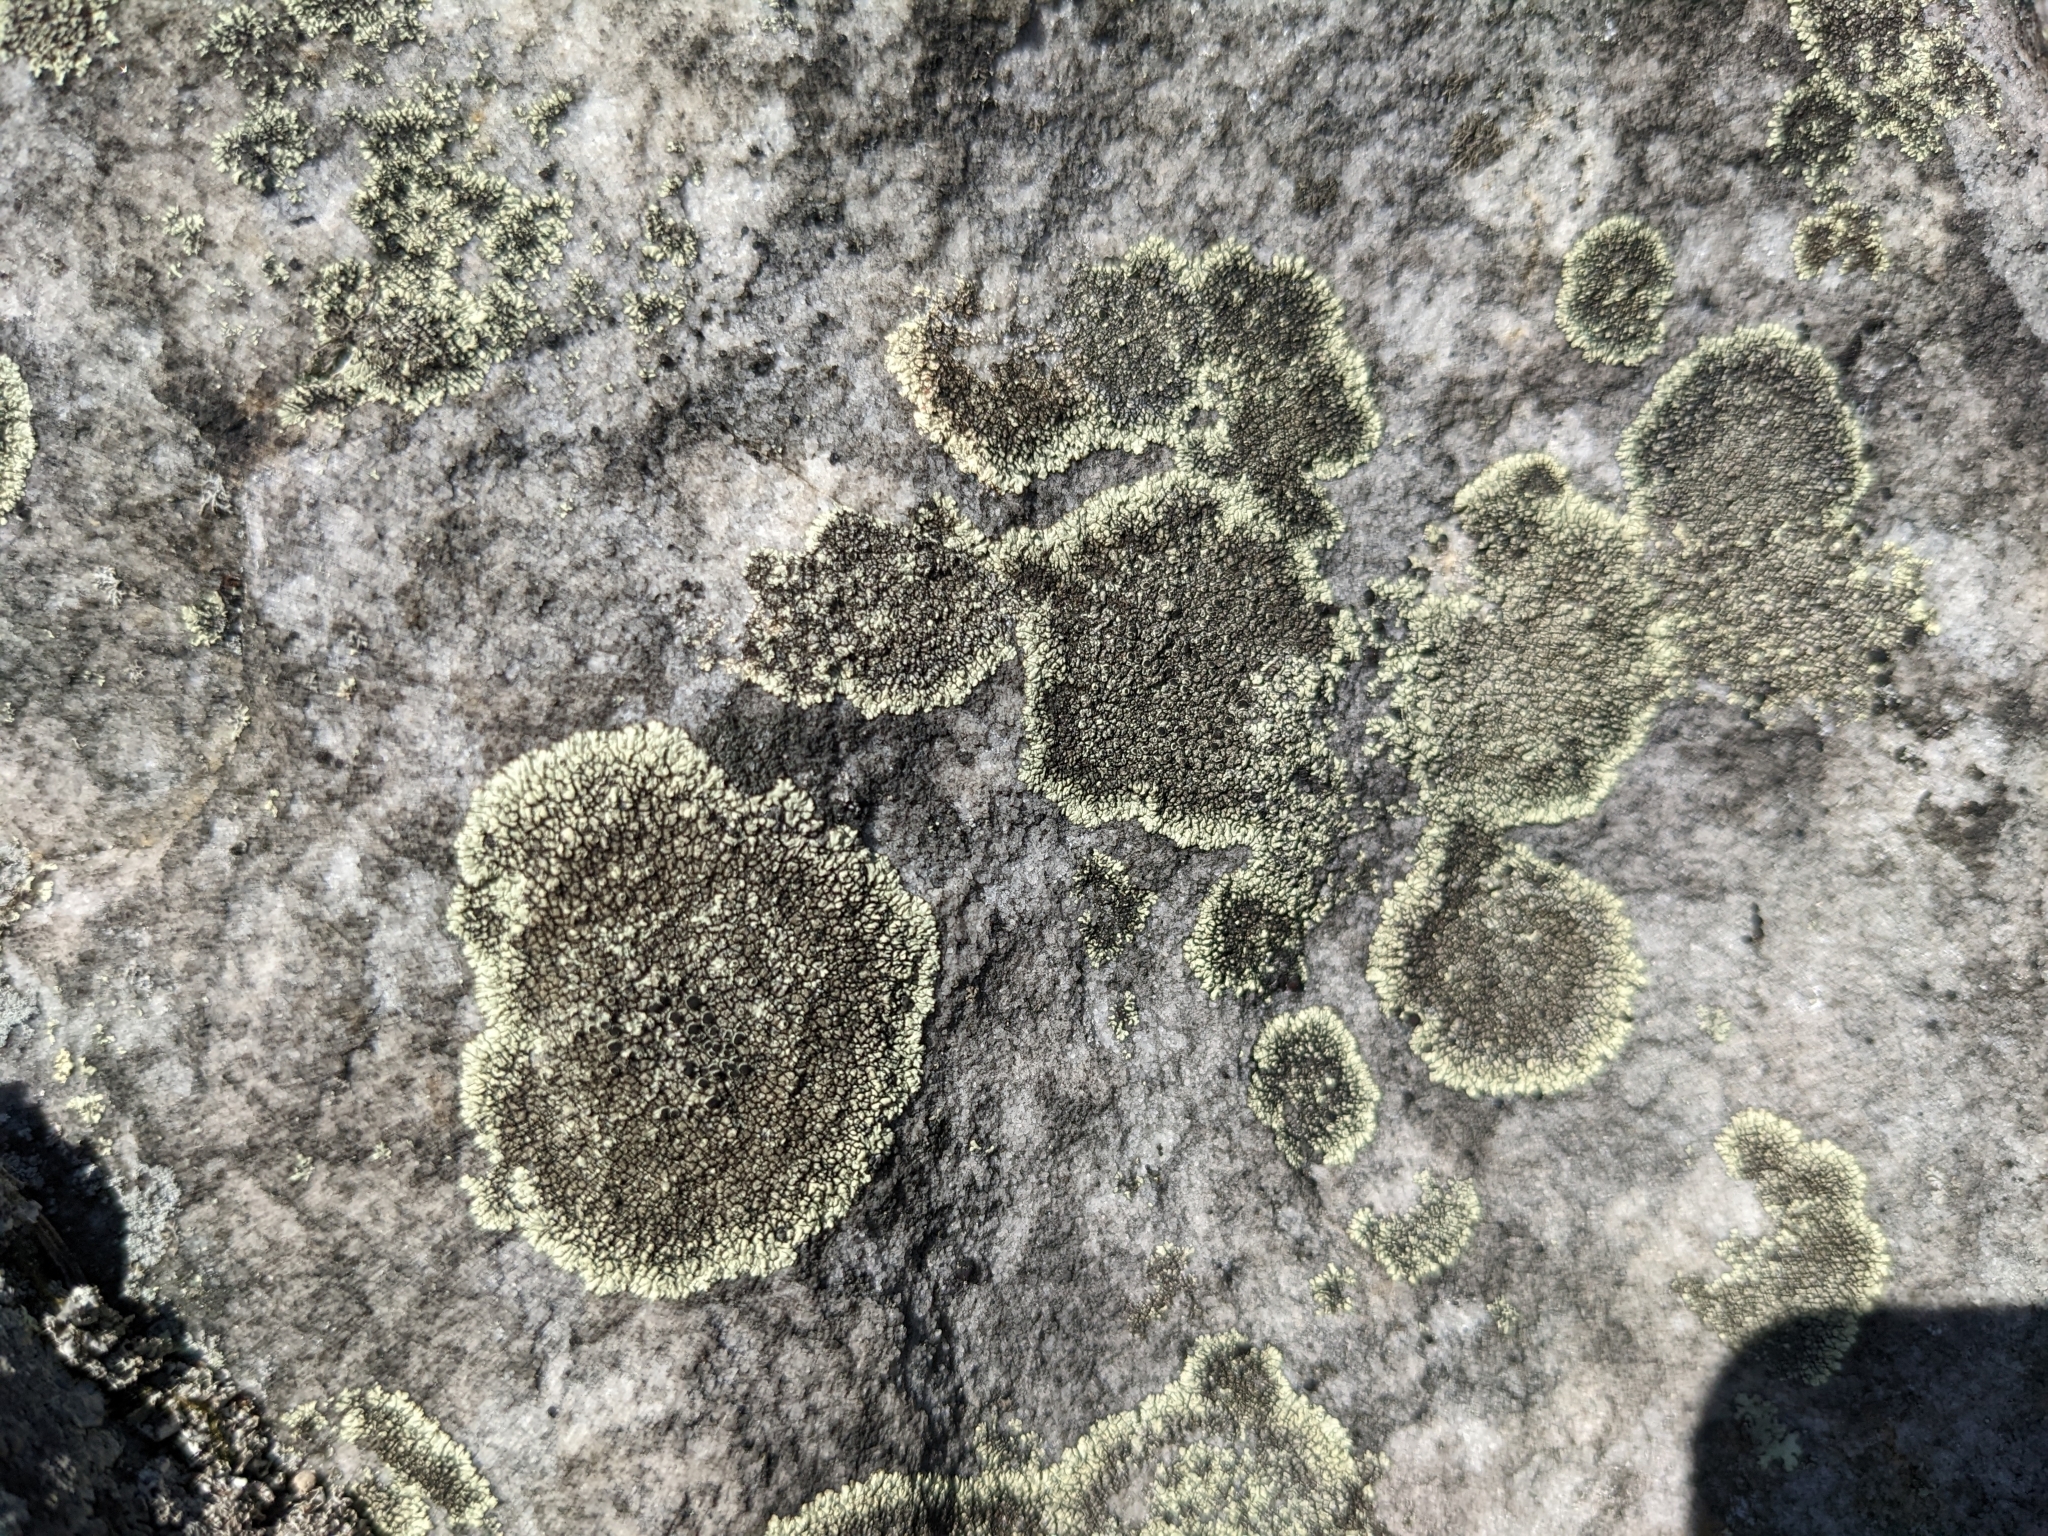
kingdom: Fungi
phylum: Ascomycota
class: Lecanoromycetes
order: Caliciales
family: Caliciaceae
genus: Dimelaena
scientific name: Dimelaena oreina
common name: Golden moonglow lichen
